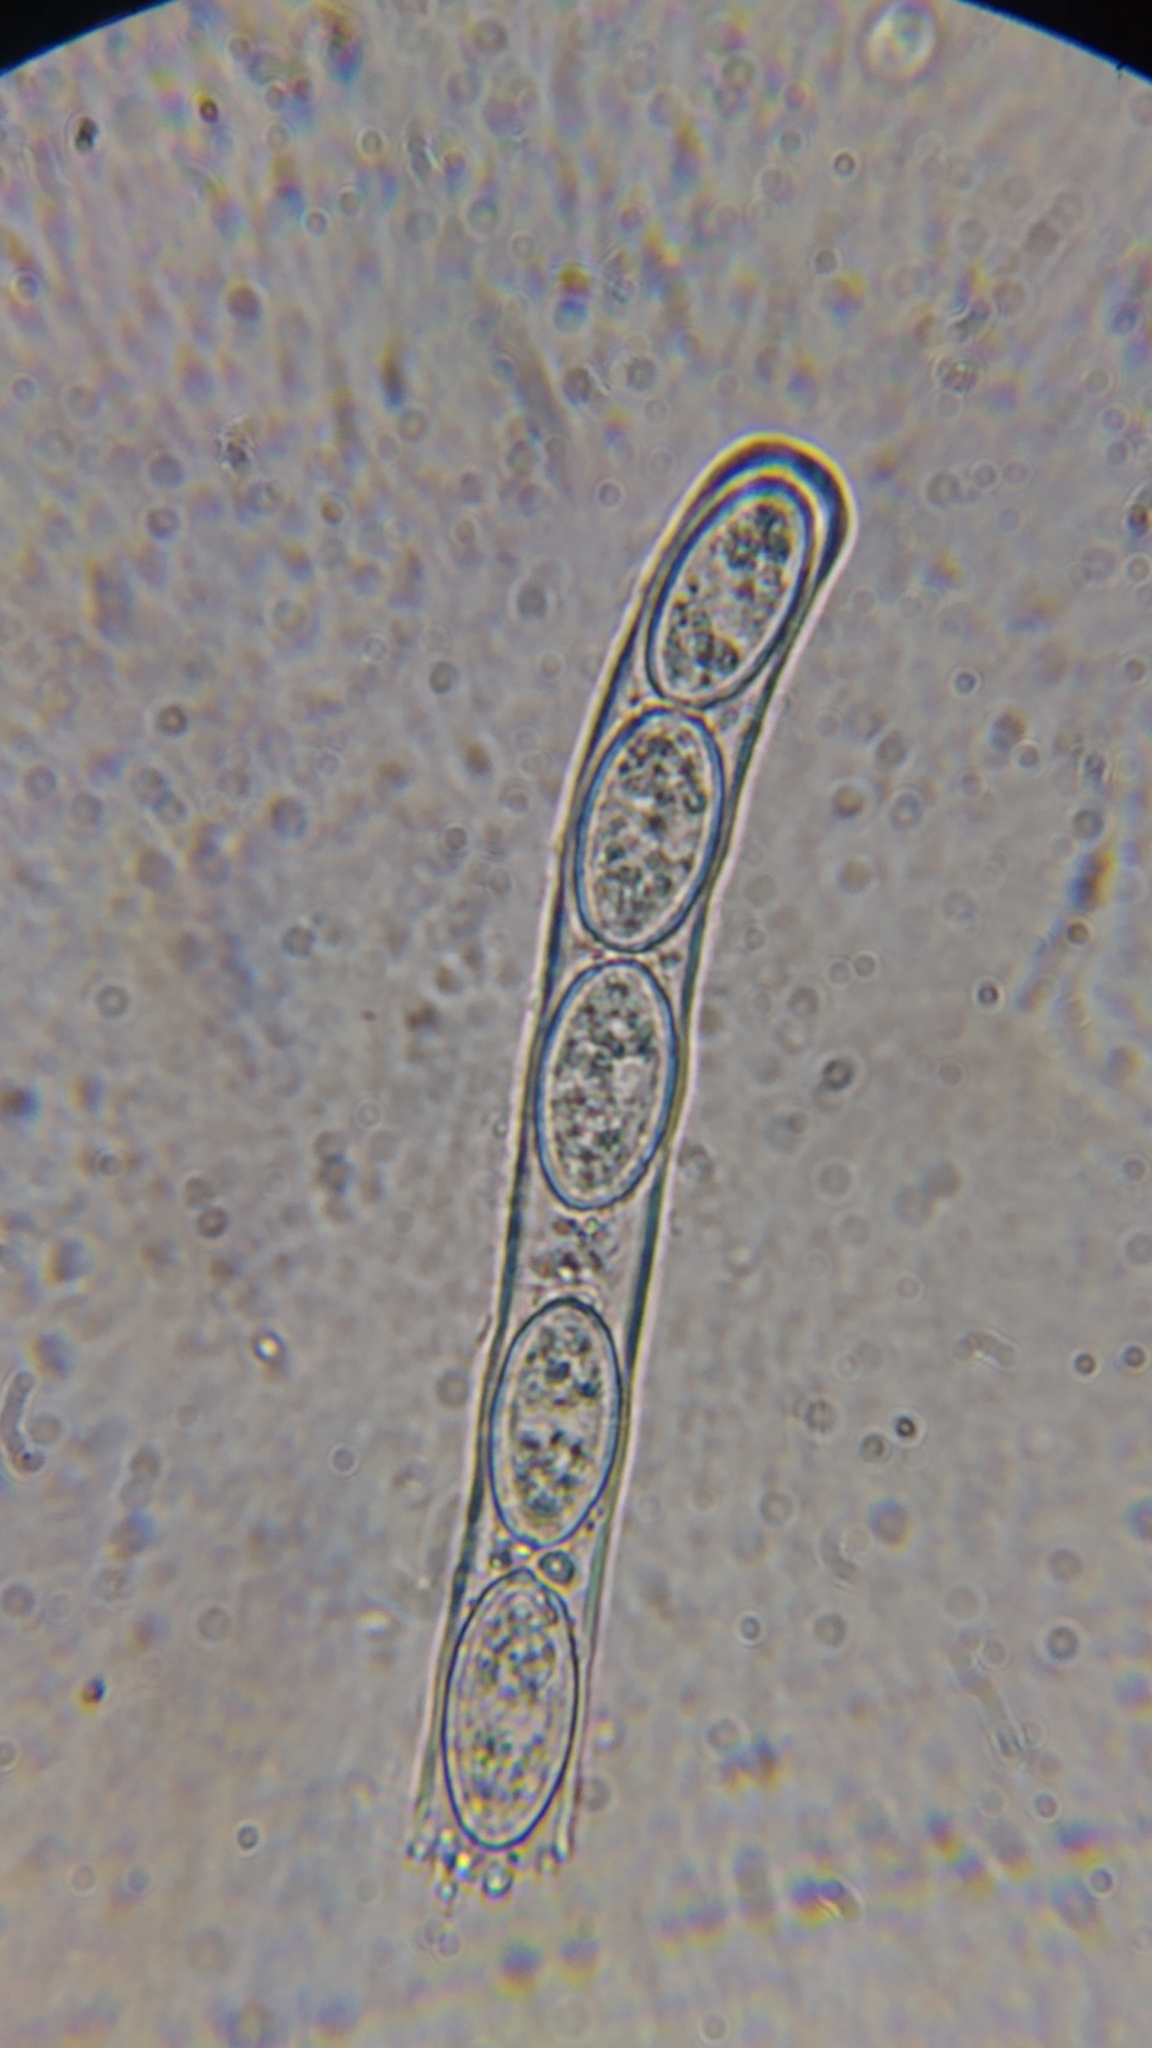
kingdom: Fungi
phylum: Ascomycota
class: Pezizomycetes
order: Pezizales
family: Sarcosomataceae
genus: Galiella
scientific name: Galiella rufa
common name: Hairy rubber cup
